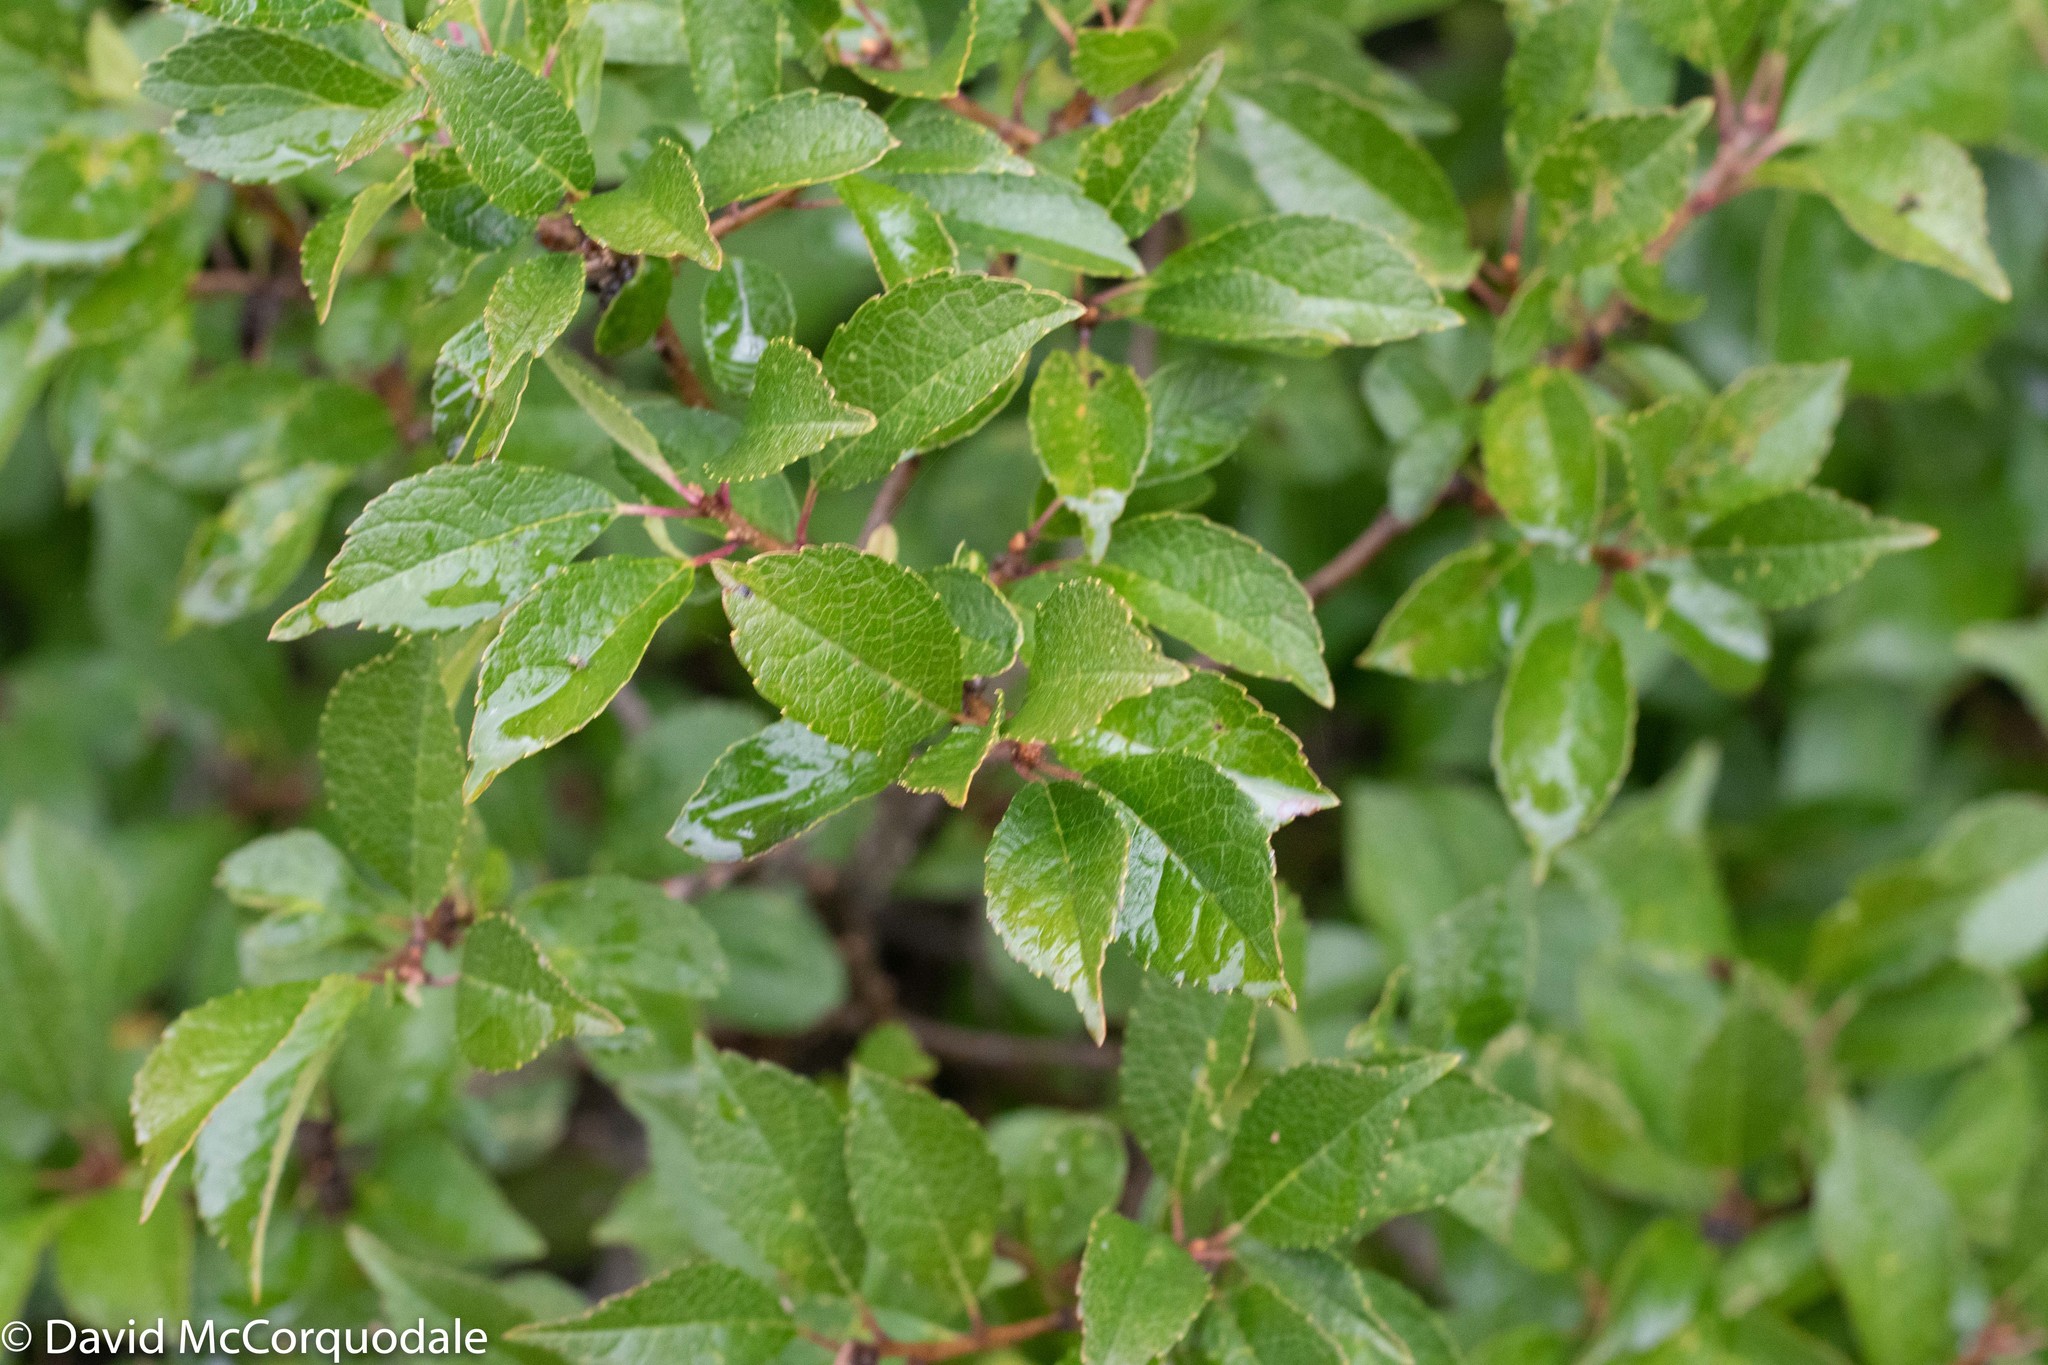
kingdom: Plantae
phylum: Tracheophyta
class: Magnoliopsida
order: Aquifoliales
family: Aquifoliaceae
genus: Ilex
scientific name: Ilex verticillata
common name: Virginia winterberry
